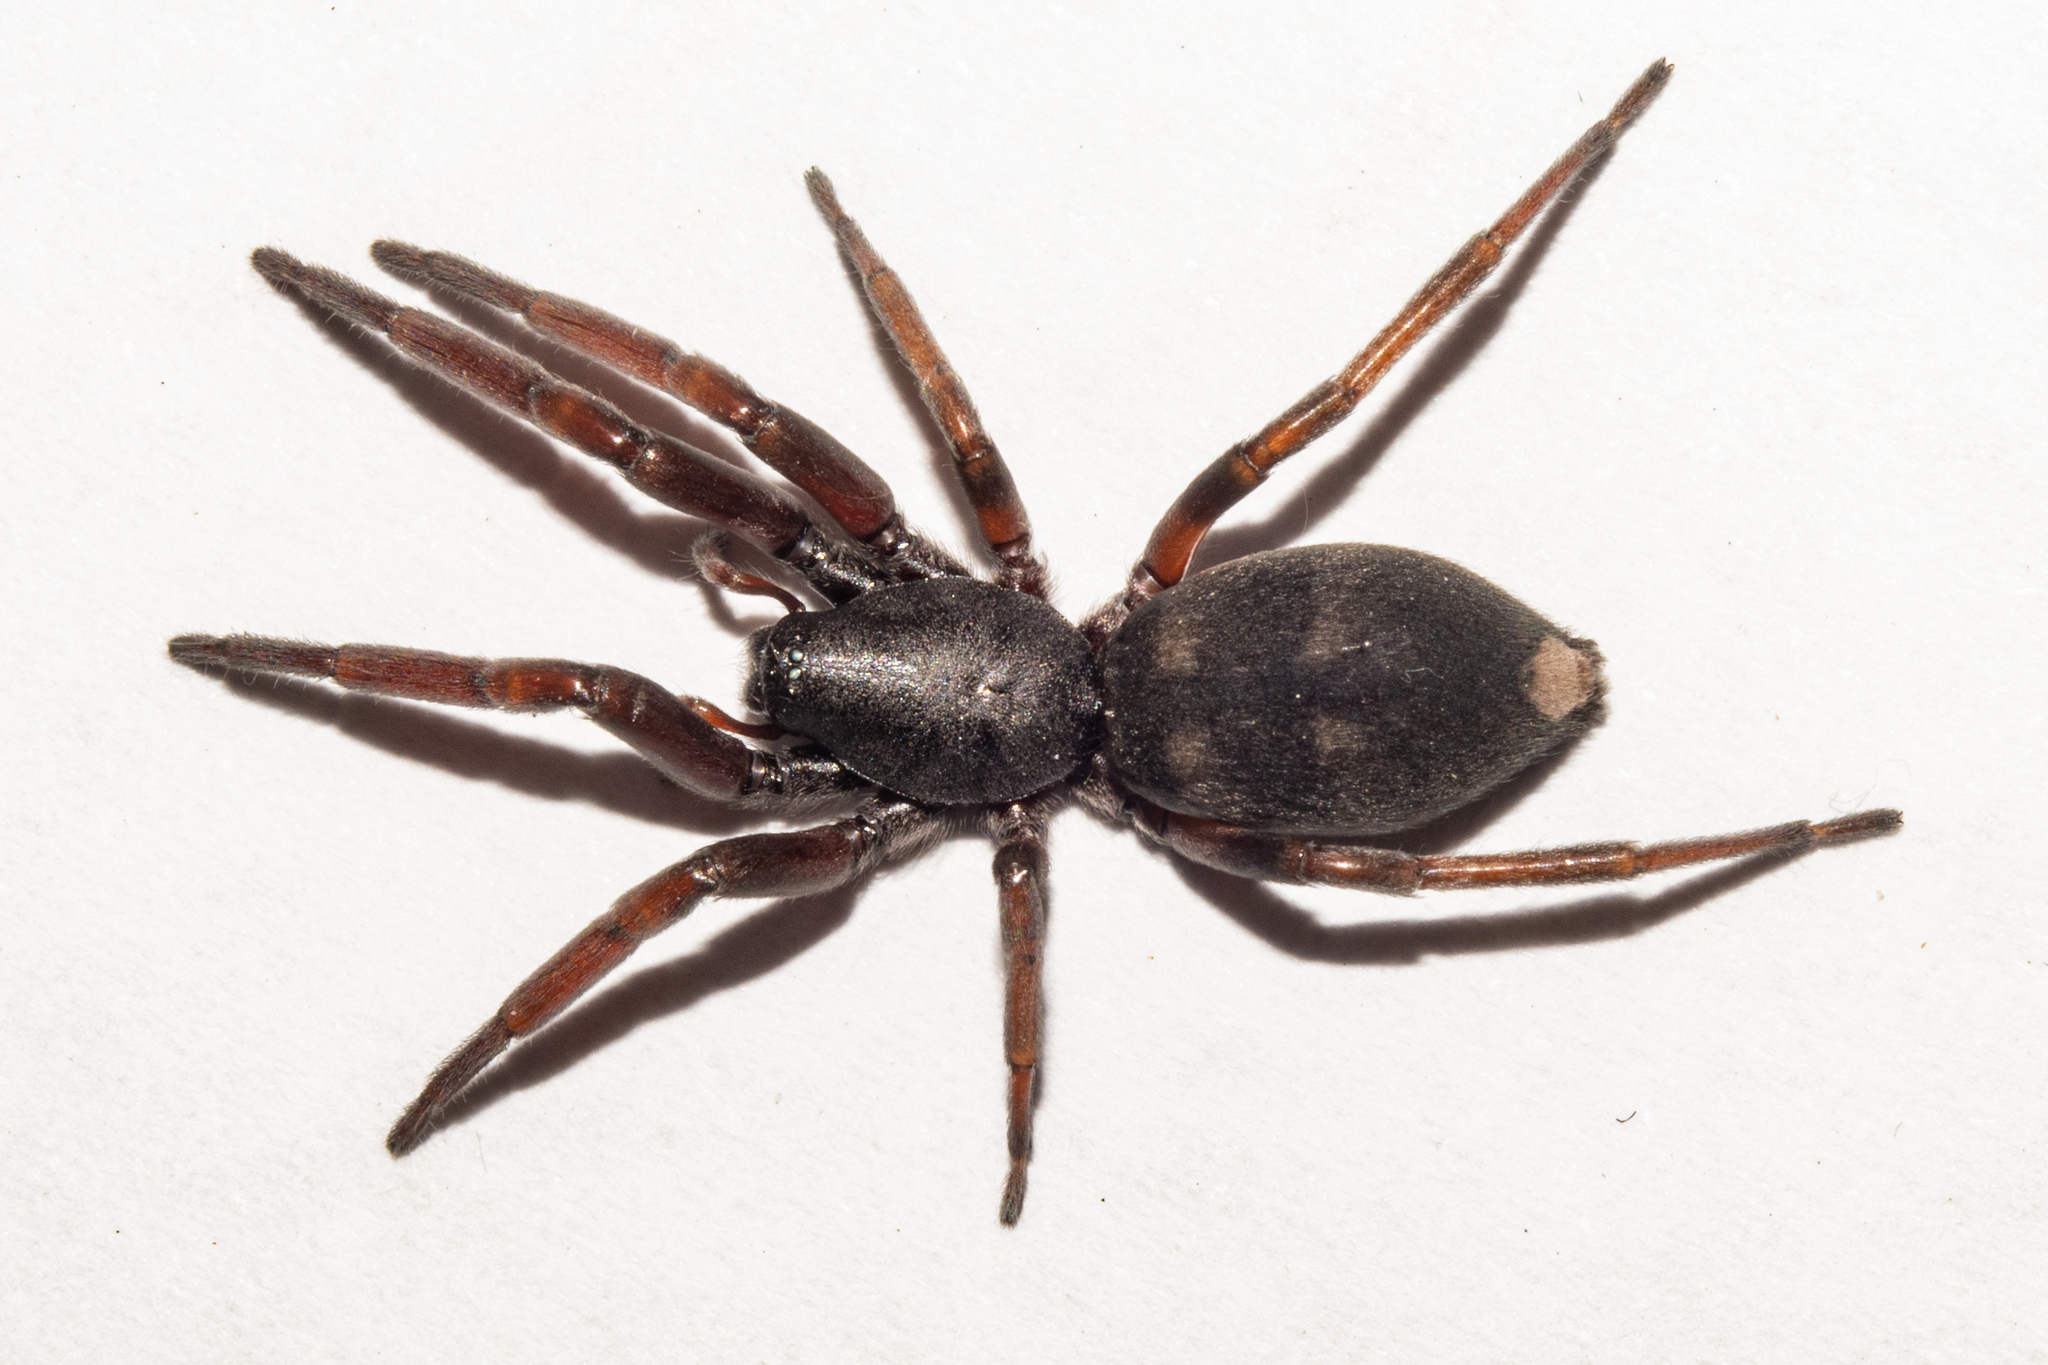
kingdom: Animalia
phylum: Arthropoda
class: Arachnida
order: Araneae
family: Lamponidae
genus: Lampona
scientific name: Lampona cylindrata
